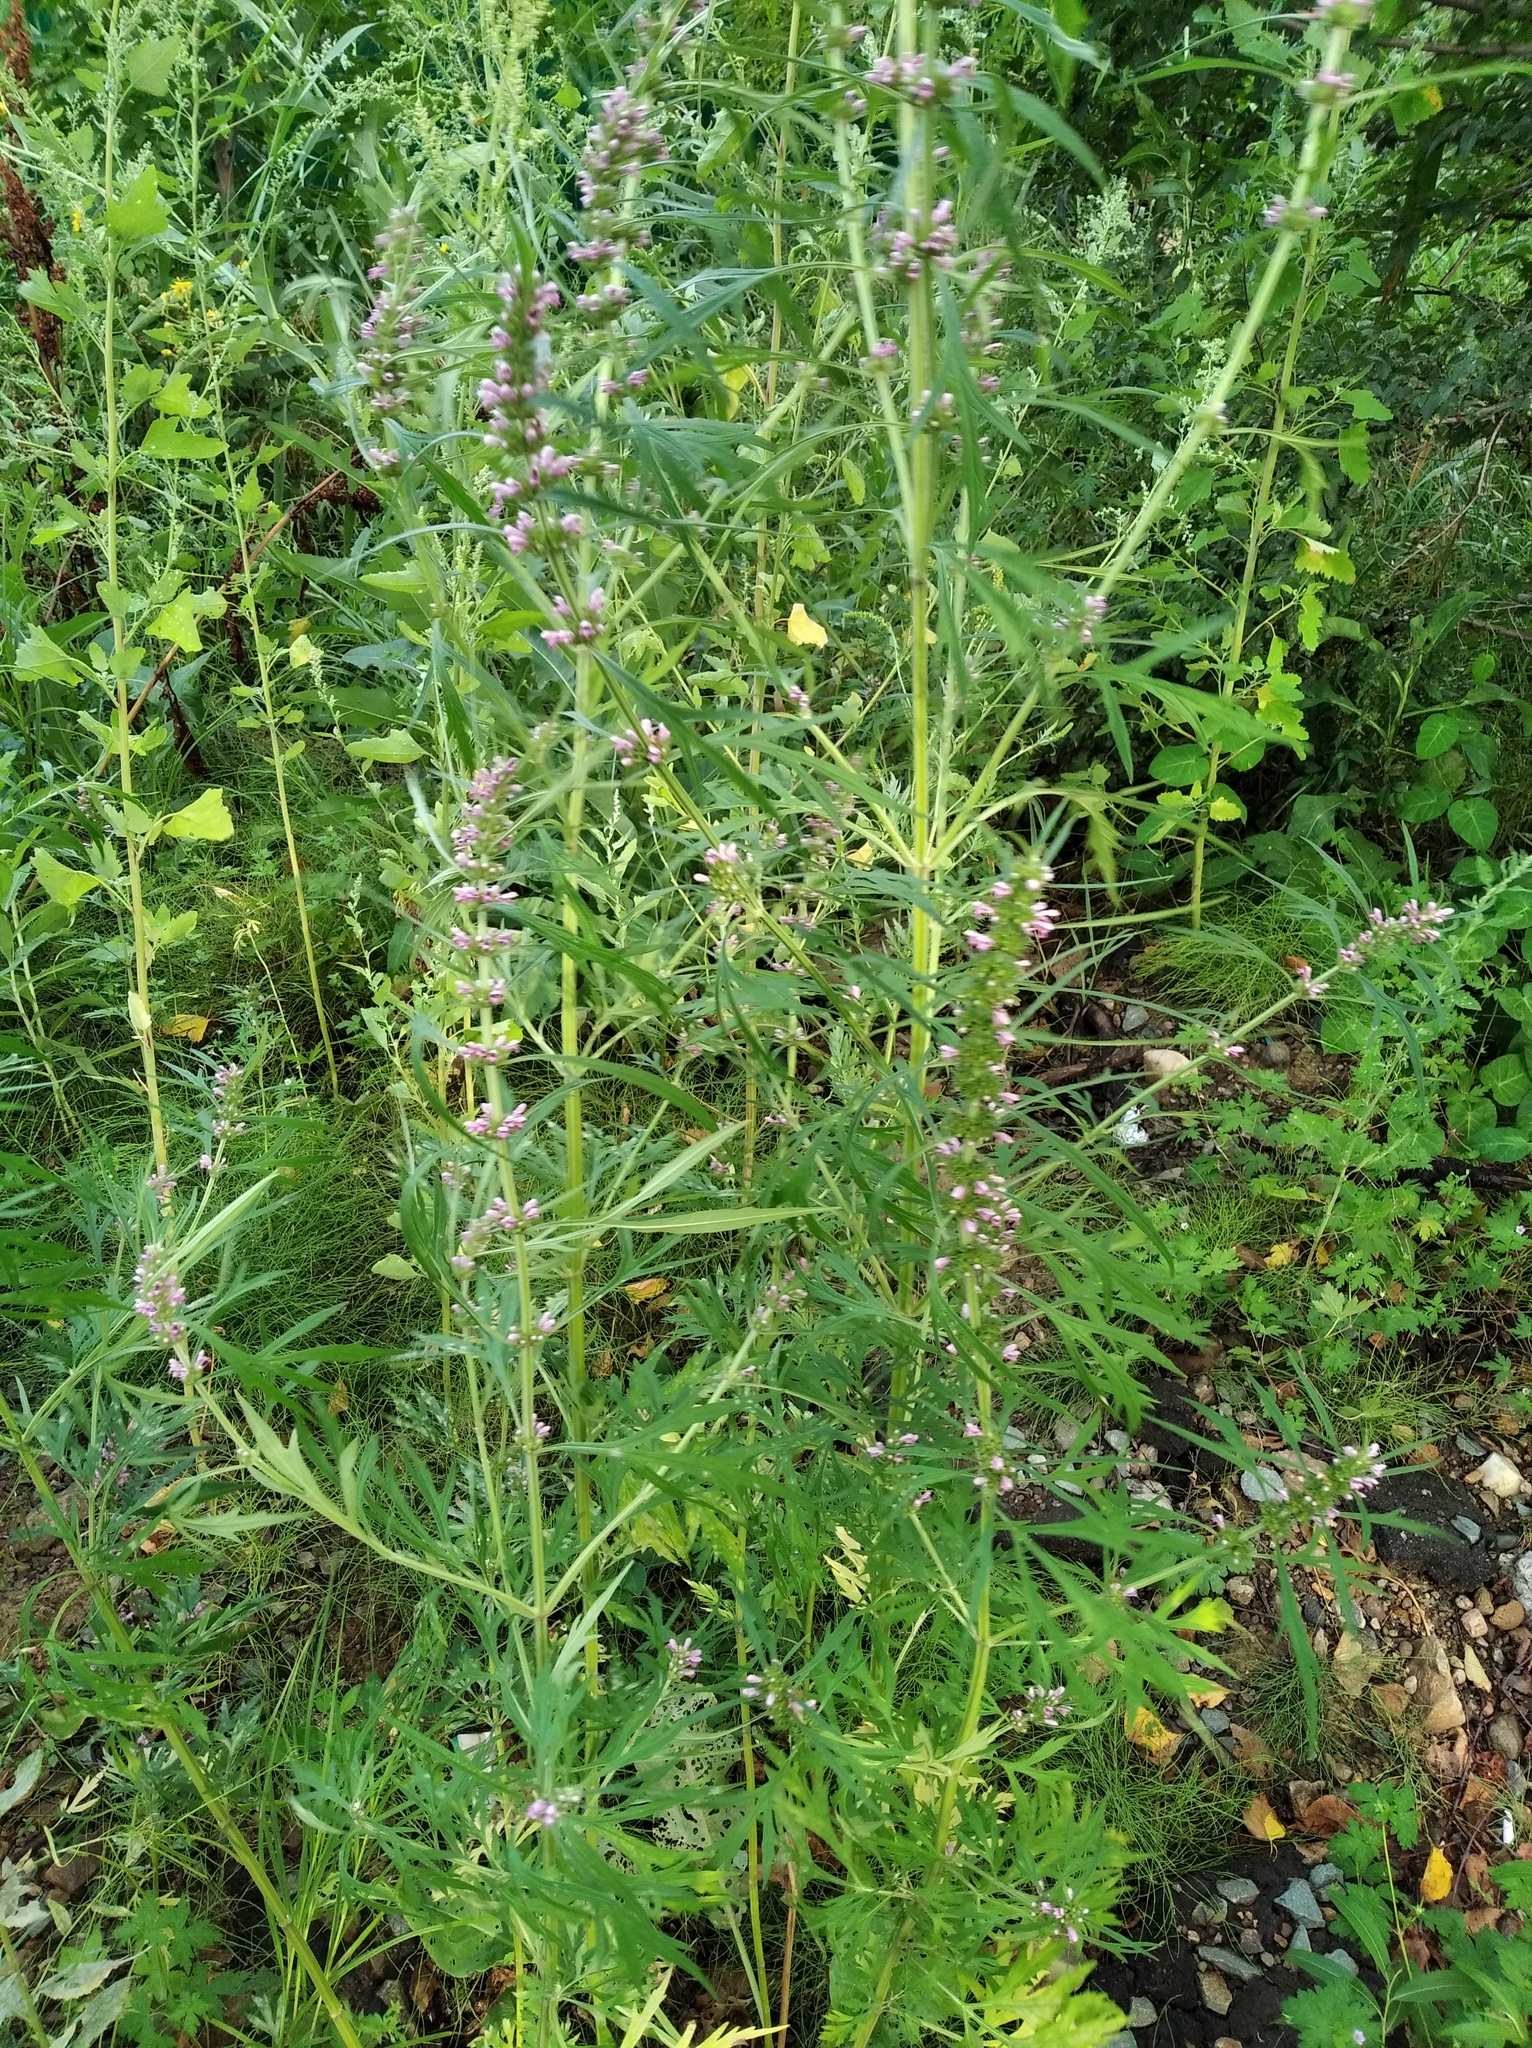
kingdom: Plantae
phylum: Tracheophyta
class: Magnoliopsida
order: Lamiales
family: Lamiaceae
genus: Leonurus
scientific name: Leonurus japonicus
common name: Honeyweed
